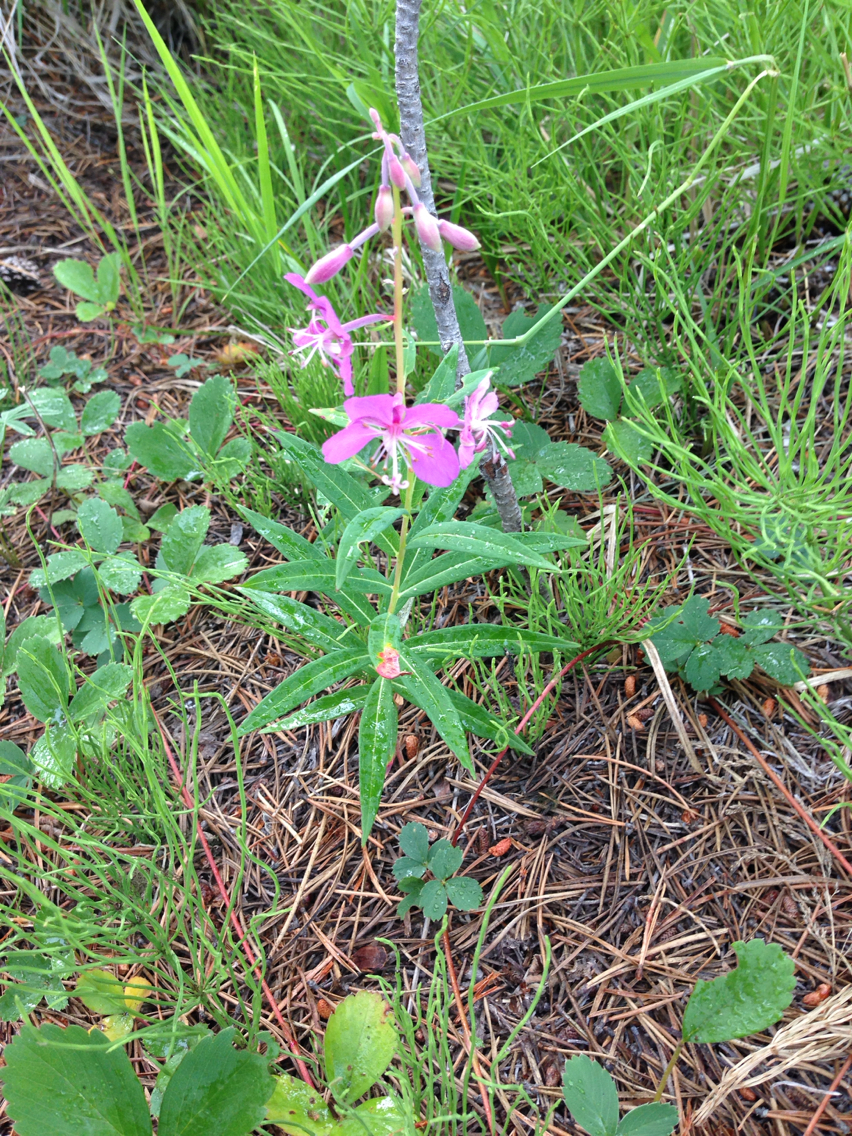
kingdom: Plantae
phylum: Tracheophyta
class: Magnoliopsida
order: Myrtales
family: Onagraceae
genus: Chamaenerion
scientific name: Chamaenerion angustifolium
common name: Fireweed
